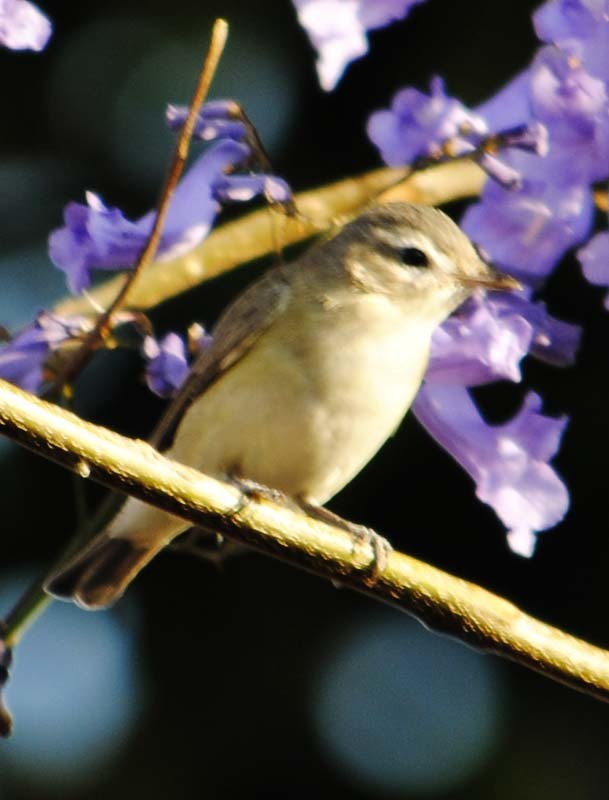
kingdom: Animalia
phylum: Chordata
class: Aves
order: Passeriformes
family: Vireonidae
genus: Vireo
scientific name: Vireo gilvus
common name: Warbling vireo
